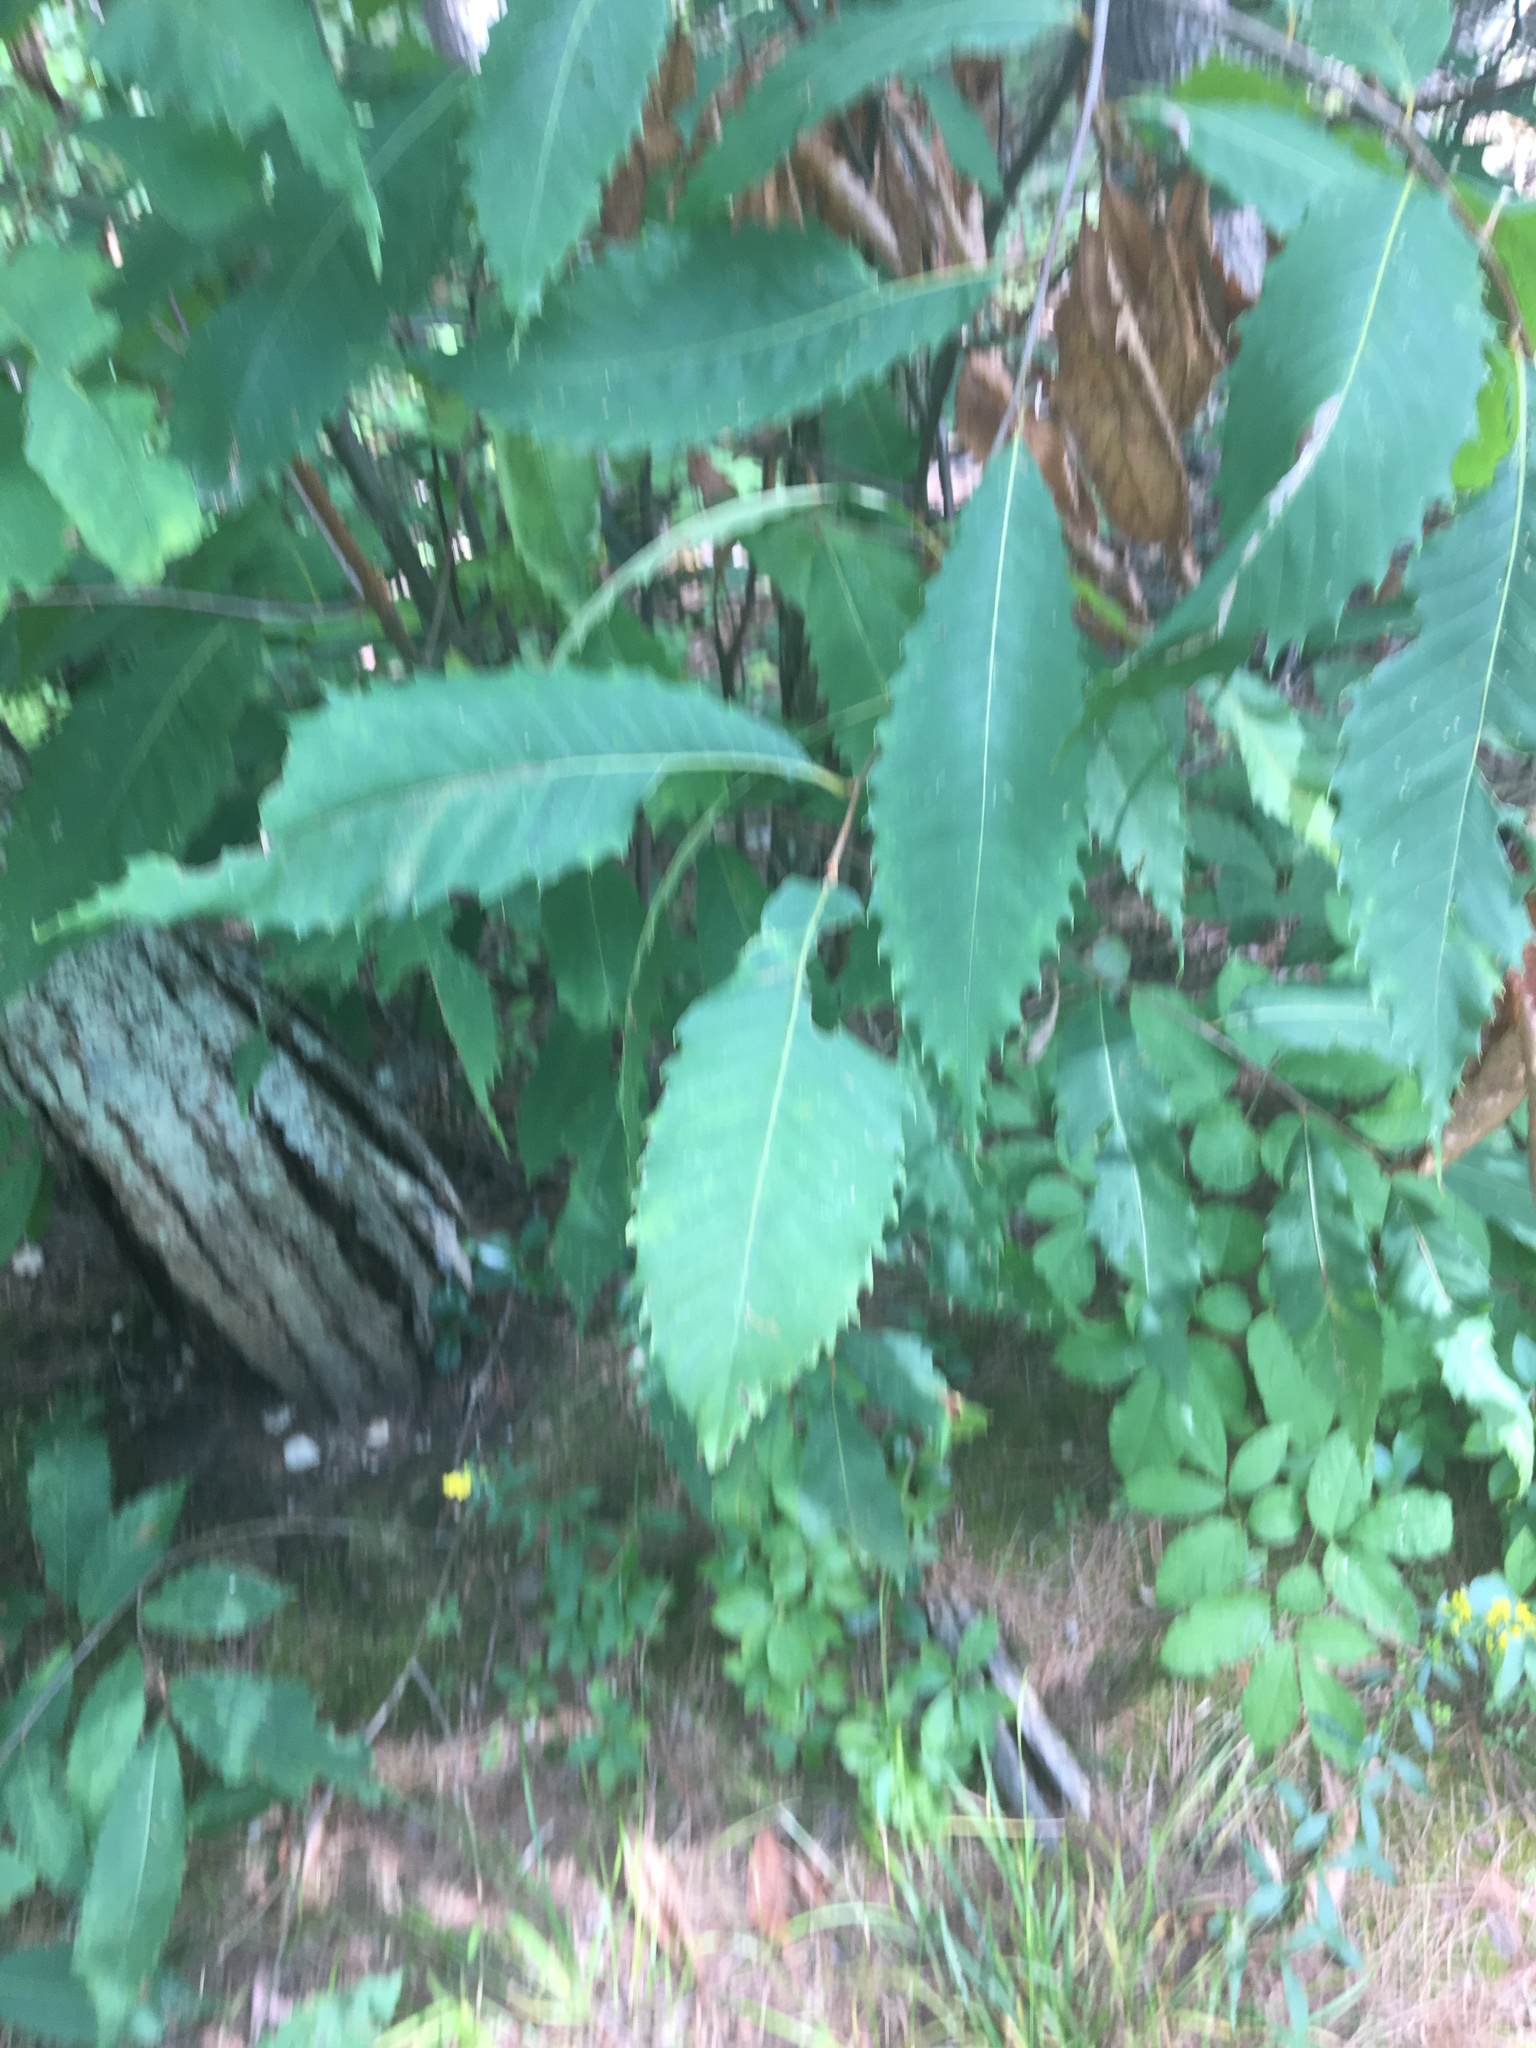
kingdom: Plantae
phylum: Tracheophyta
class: Magnoliopsida
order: Fagales
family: Fagaceae
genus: Castanea
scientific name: Castanea dentata
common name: American chestnut
